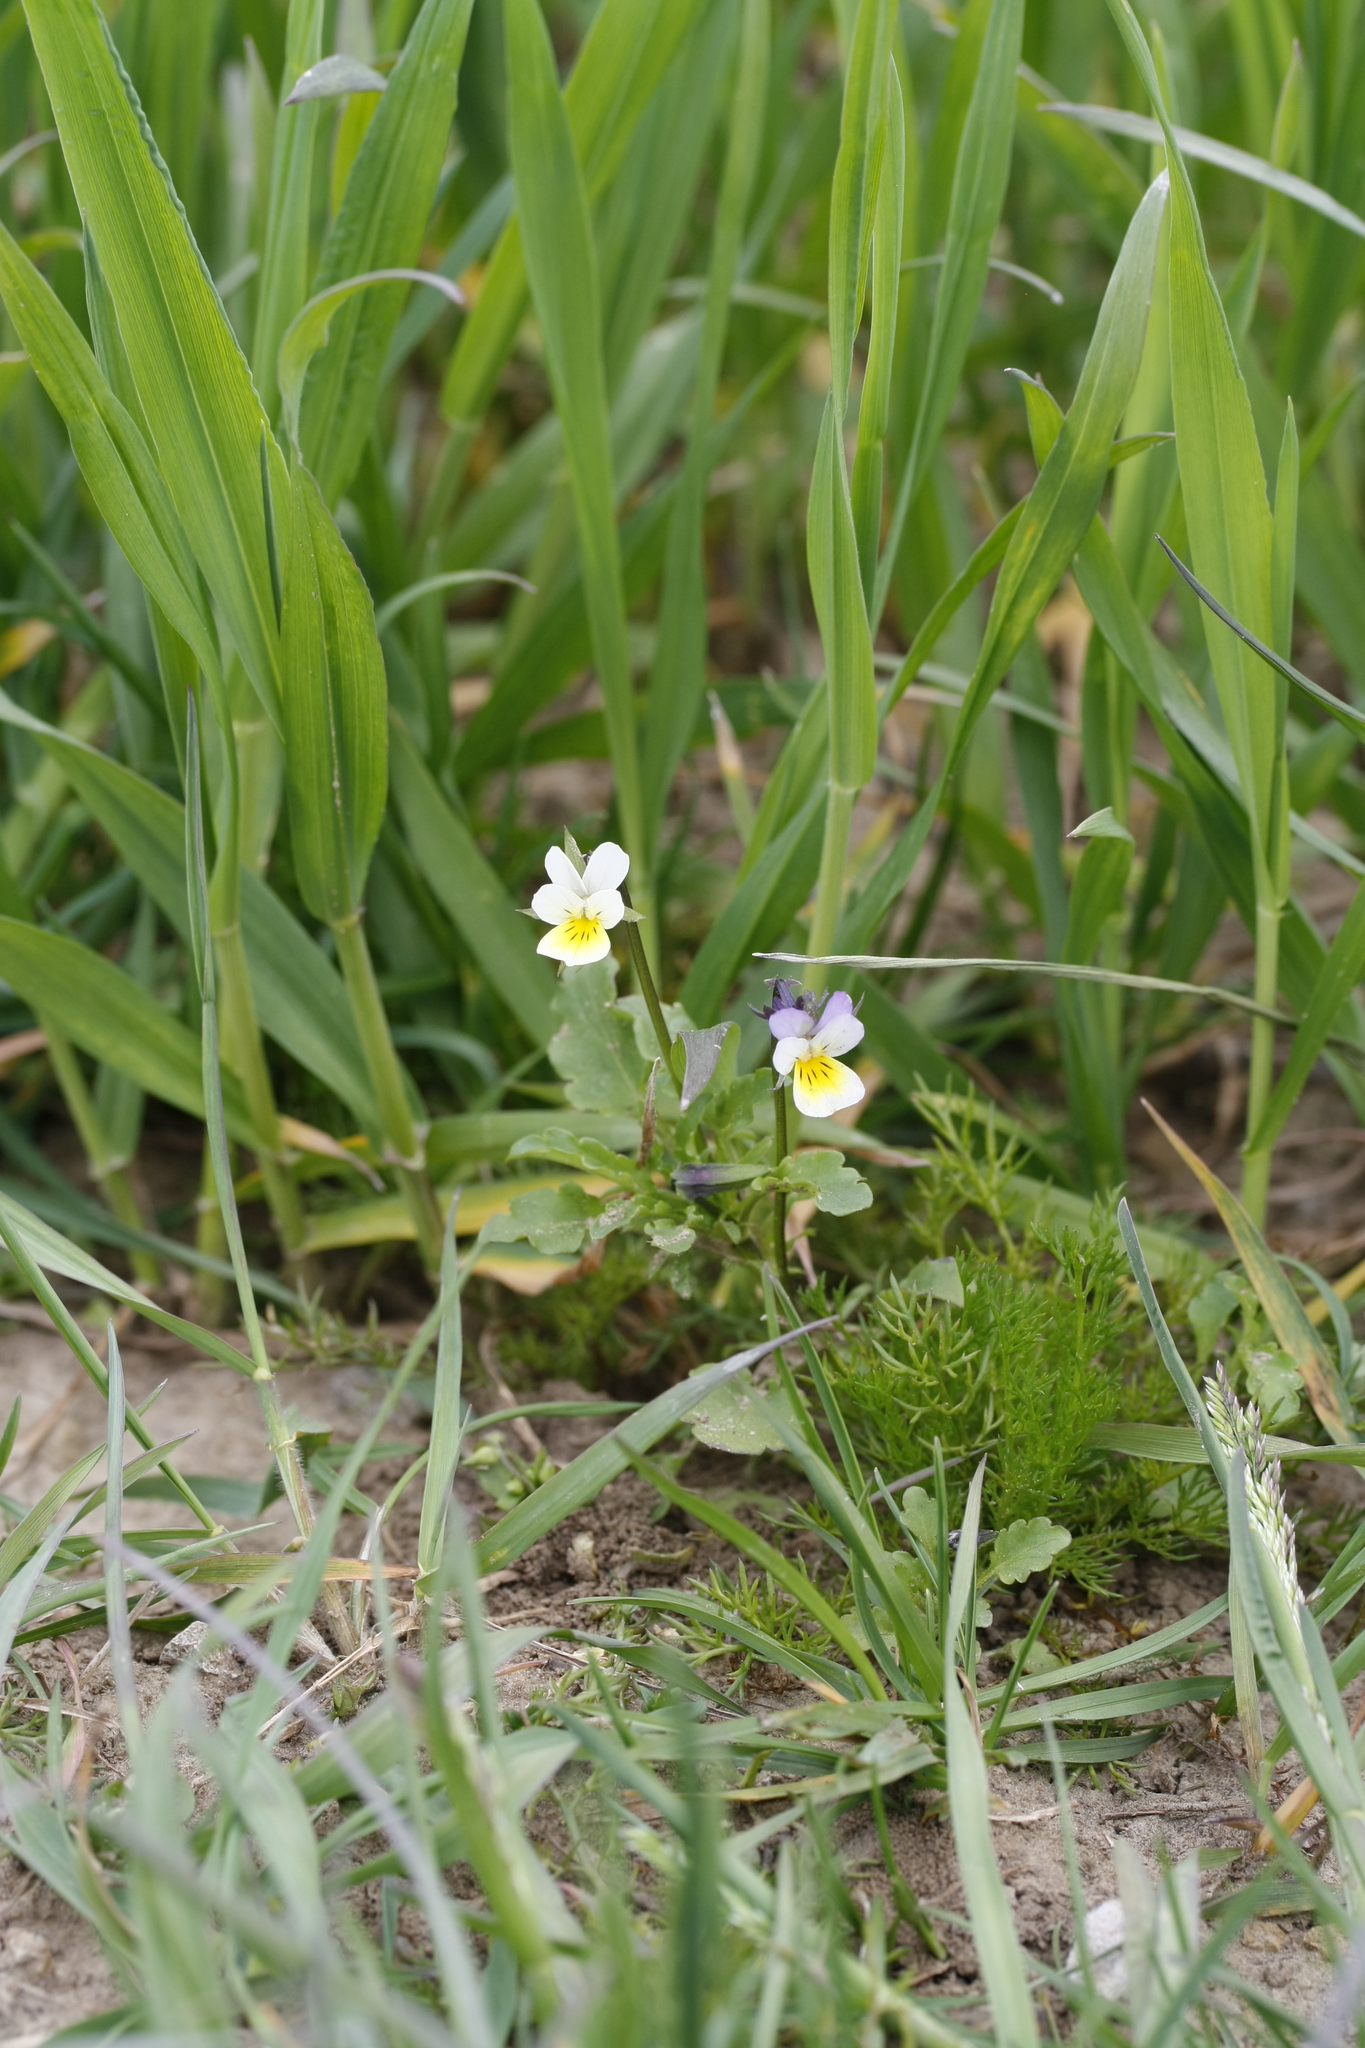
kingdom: Plantae
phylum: Tracheophyta
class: Magnoliopsida
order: Malpighiales
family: Violaceae
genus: Viola
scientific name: Viola arvensis
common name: Field pansy
